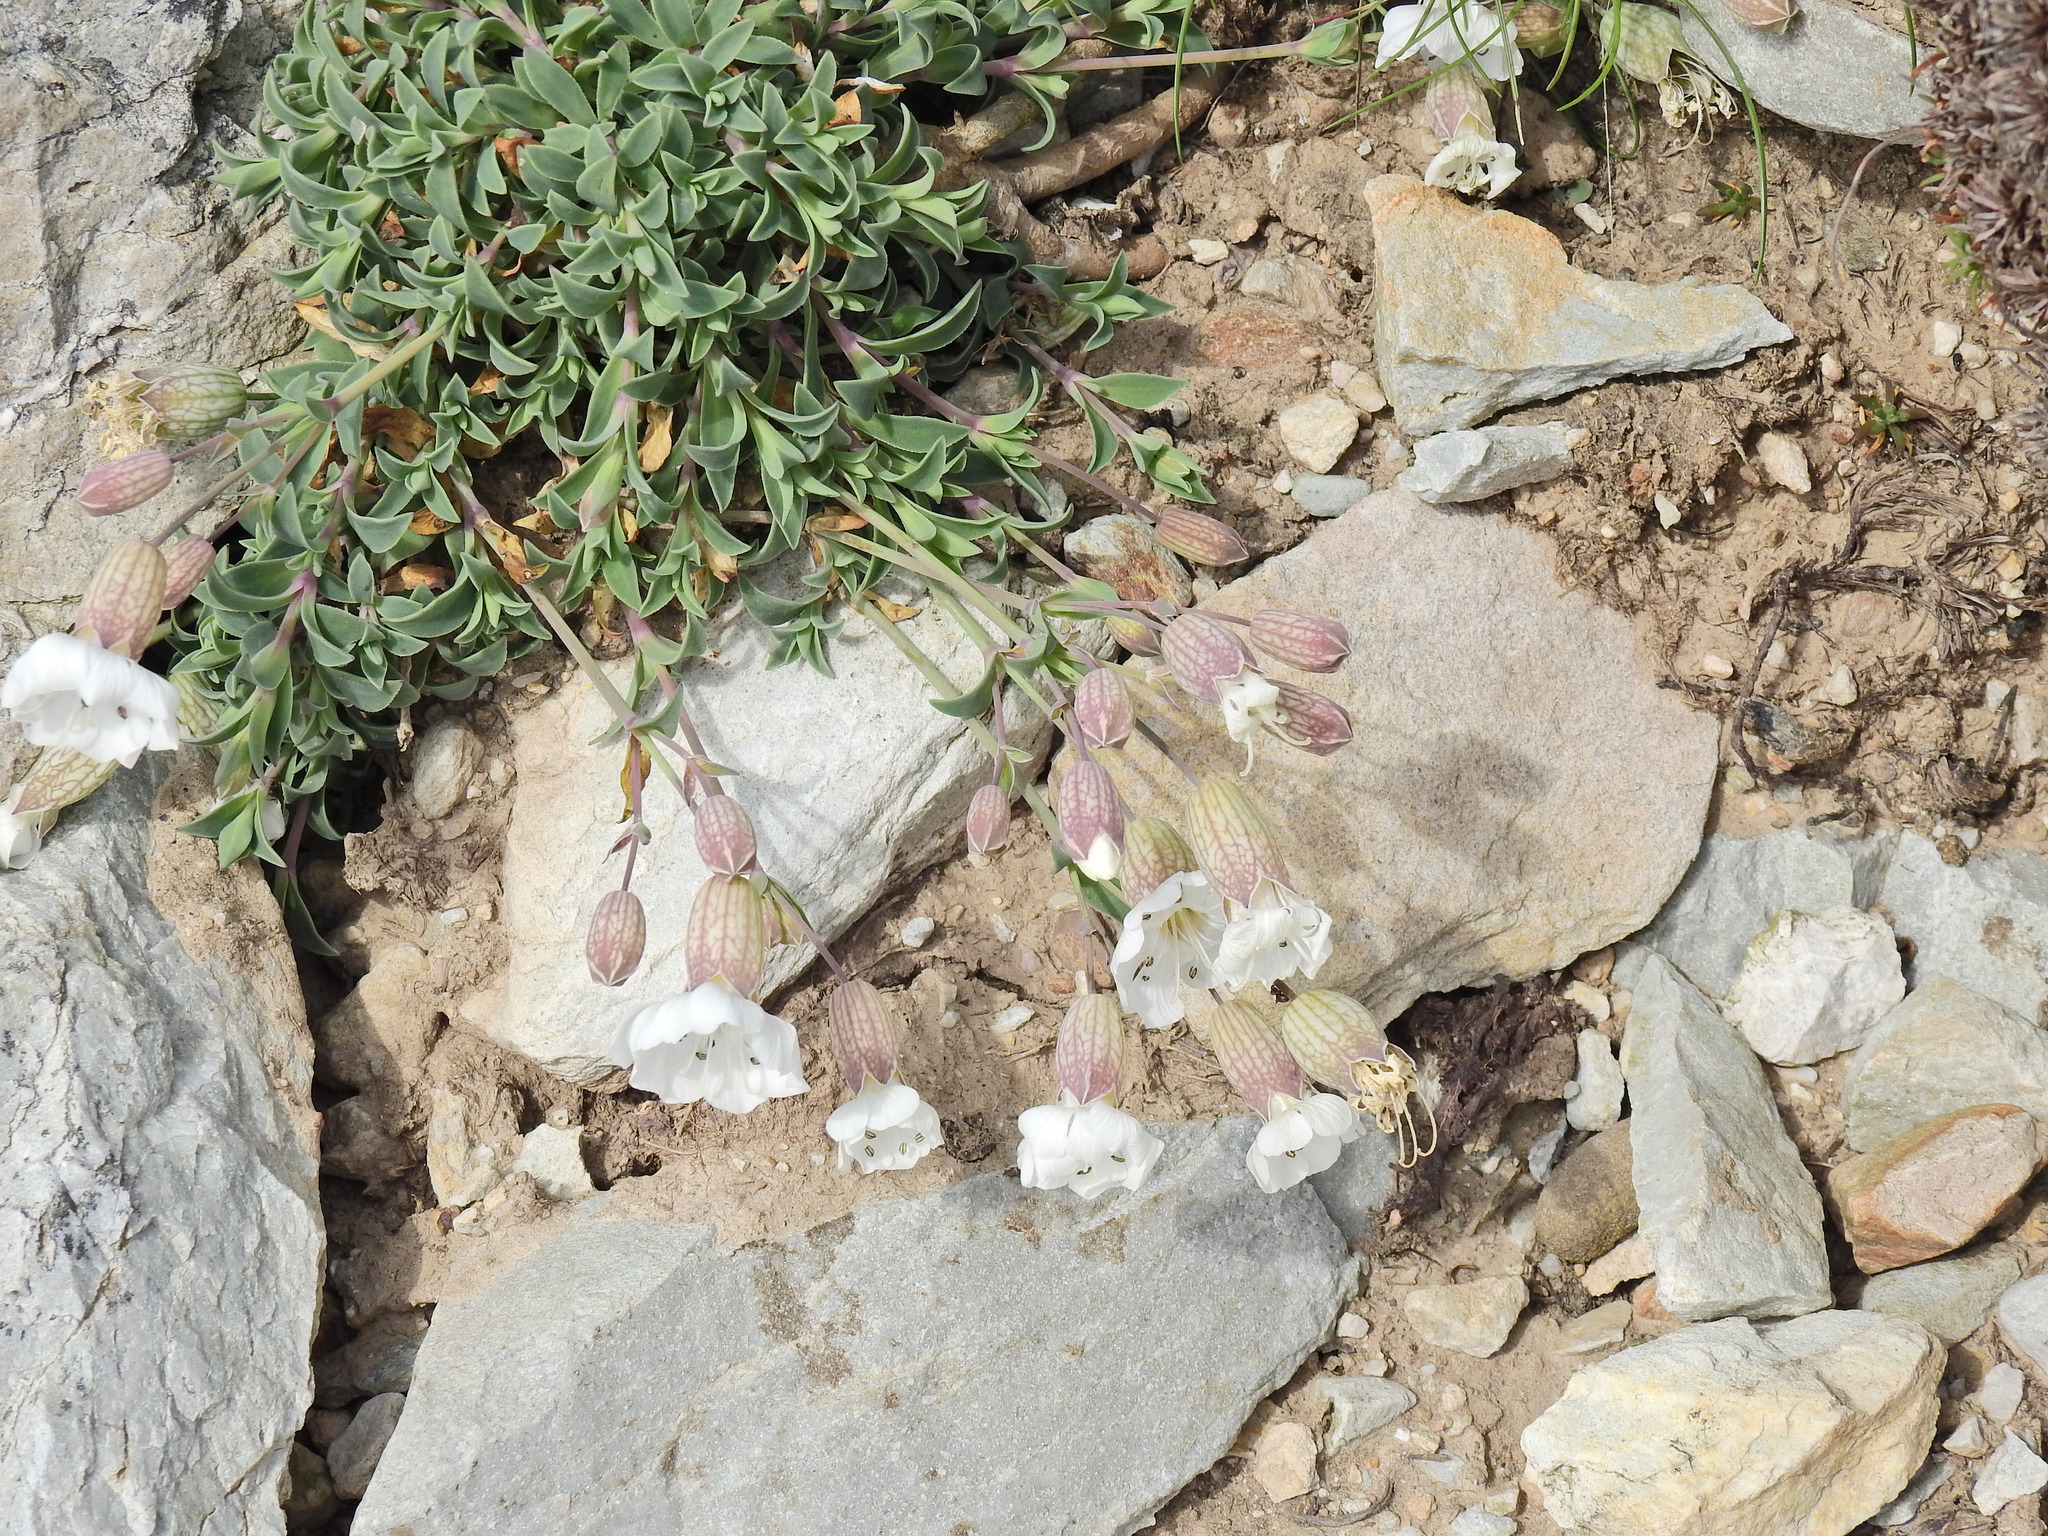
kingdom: Plantae
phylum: Tracheophyta
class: Magnoliopsida
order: Caryophyllales
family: Caryophyllaceae
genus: Silene
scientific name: Silene uniflora
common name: Sea campion
